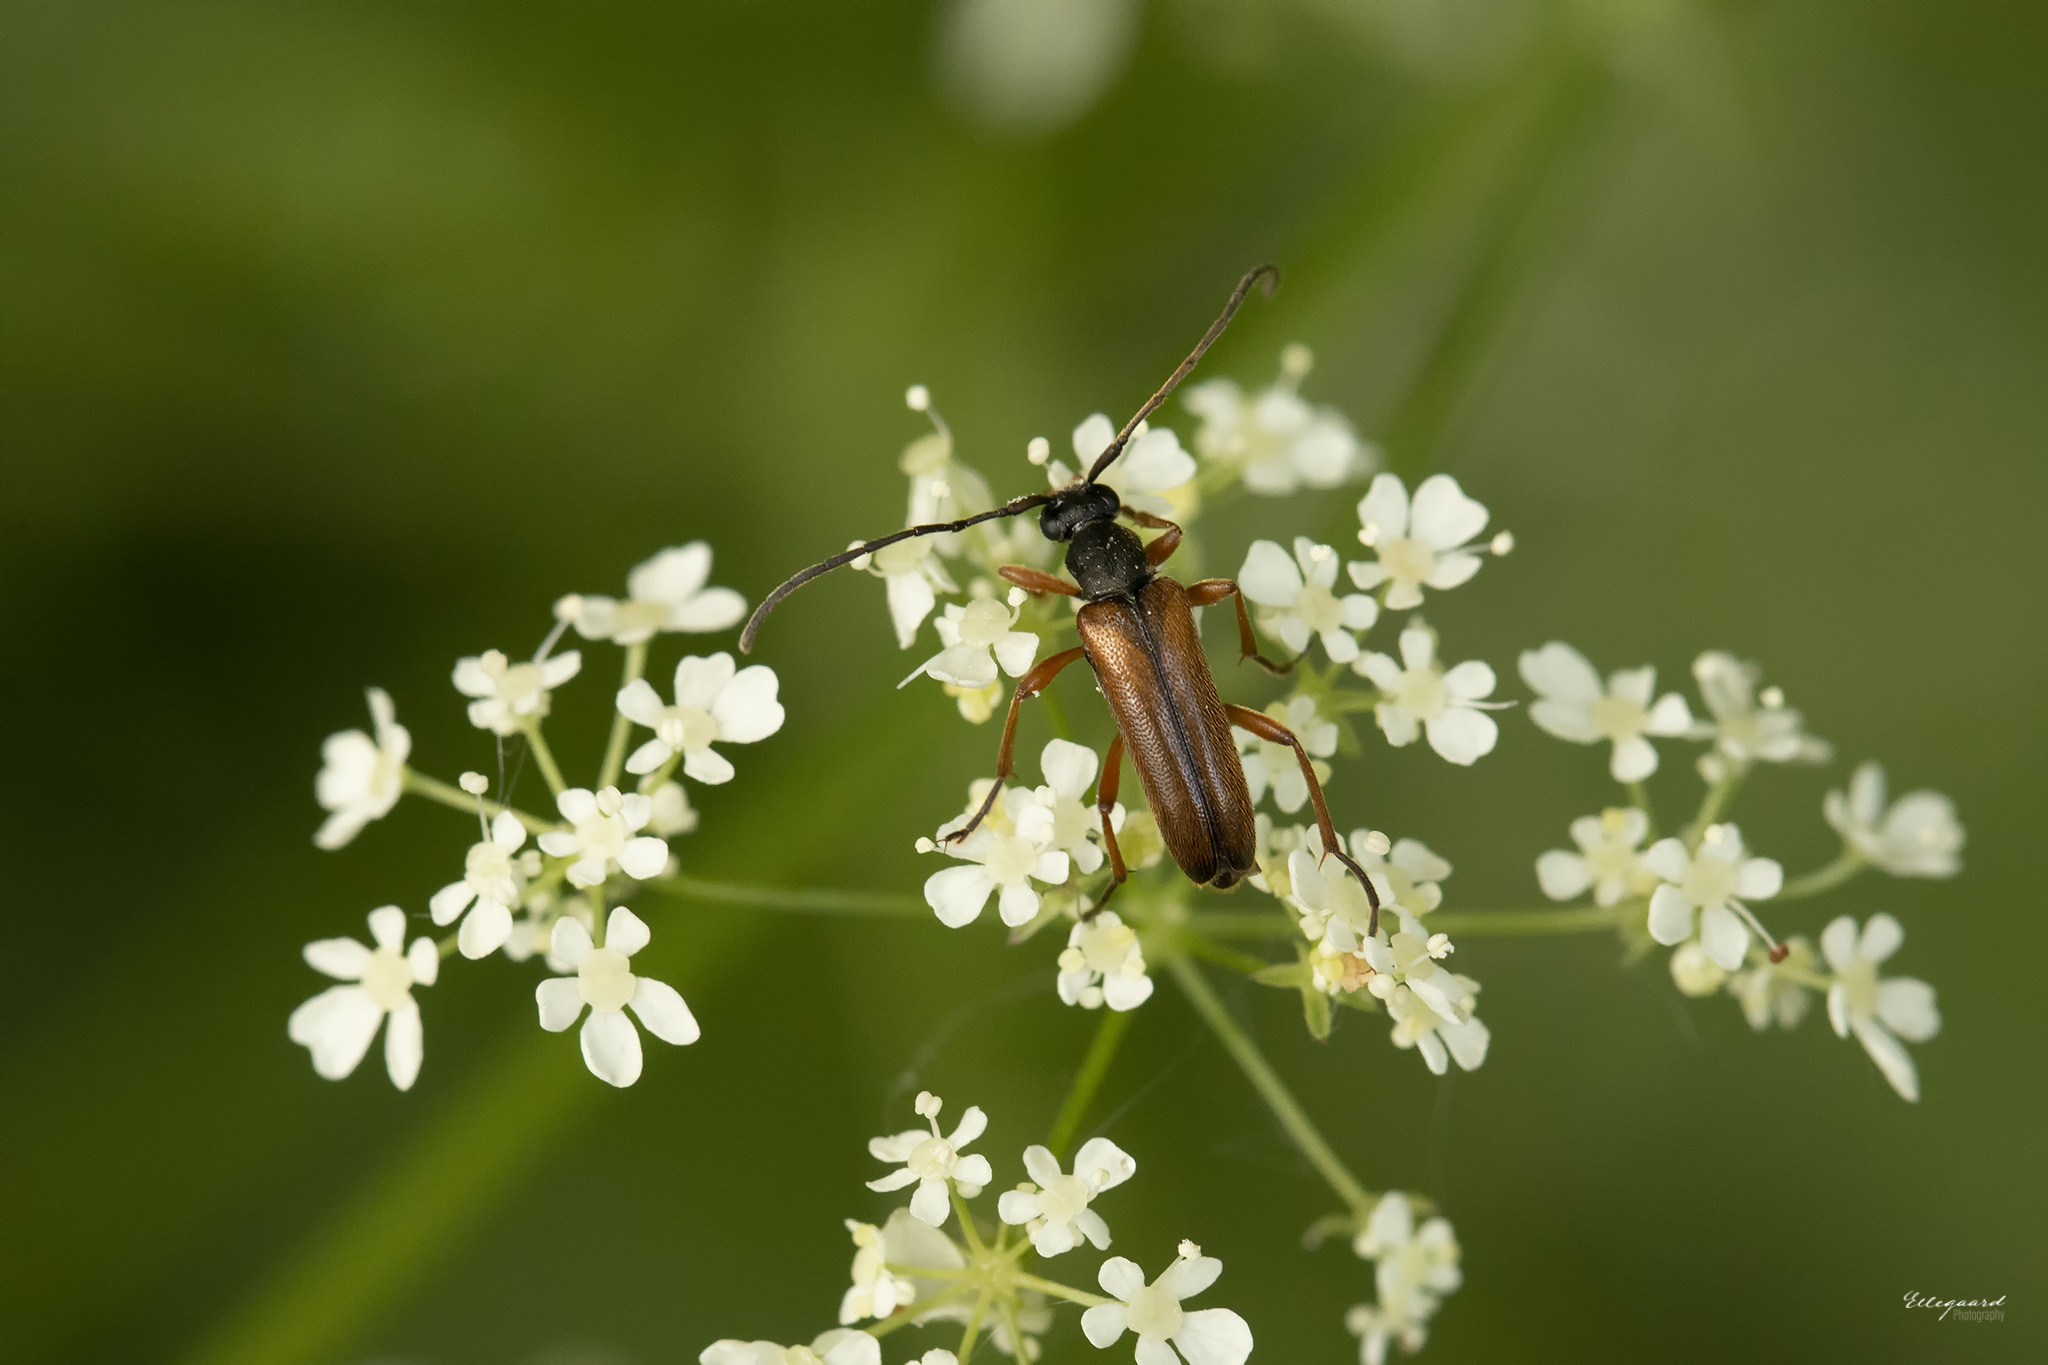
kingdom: Animalia
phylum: Arthropoda
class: Insecta
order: Coleoptera
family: Cerambycidae
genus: Alosterna
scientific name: Alosterna tabacicolor
